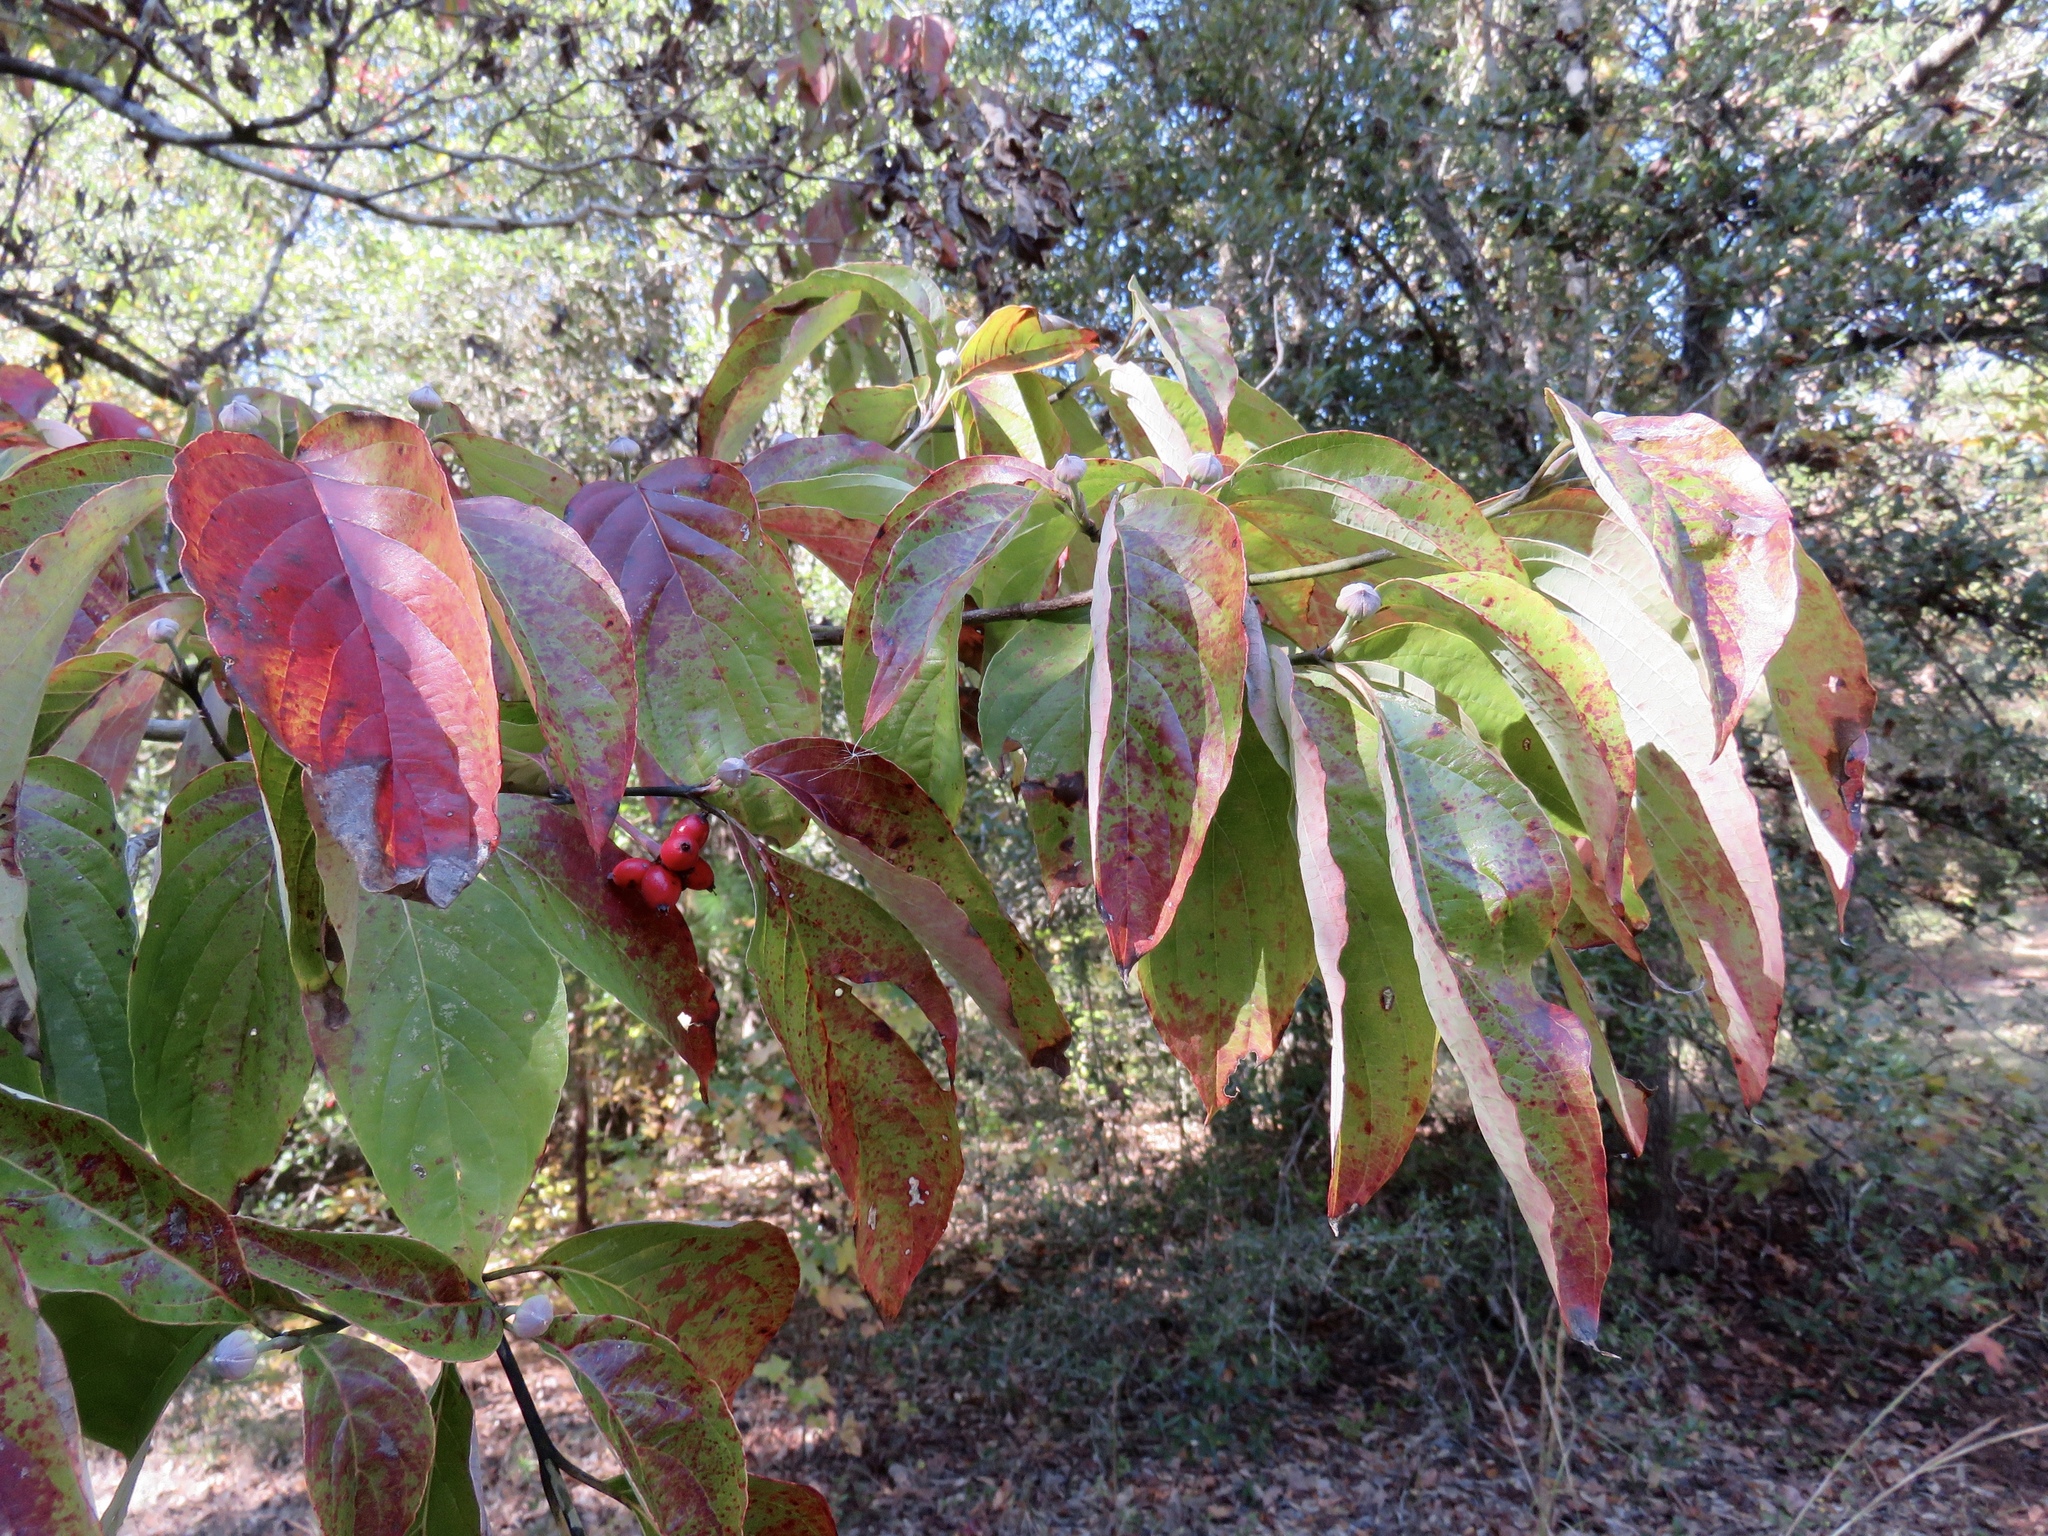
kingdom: Plantae
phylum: Tracheophyta
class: Magnoliopsida
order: Cornales
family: Cornaceae
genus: Cornus
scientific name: Cornus florida
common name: Flowering dogwood
